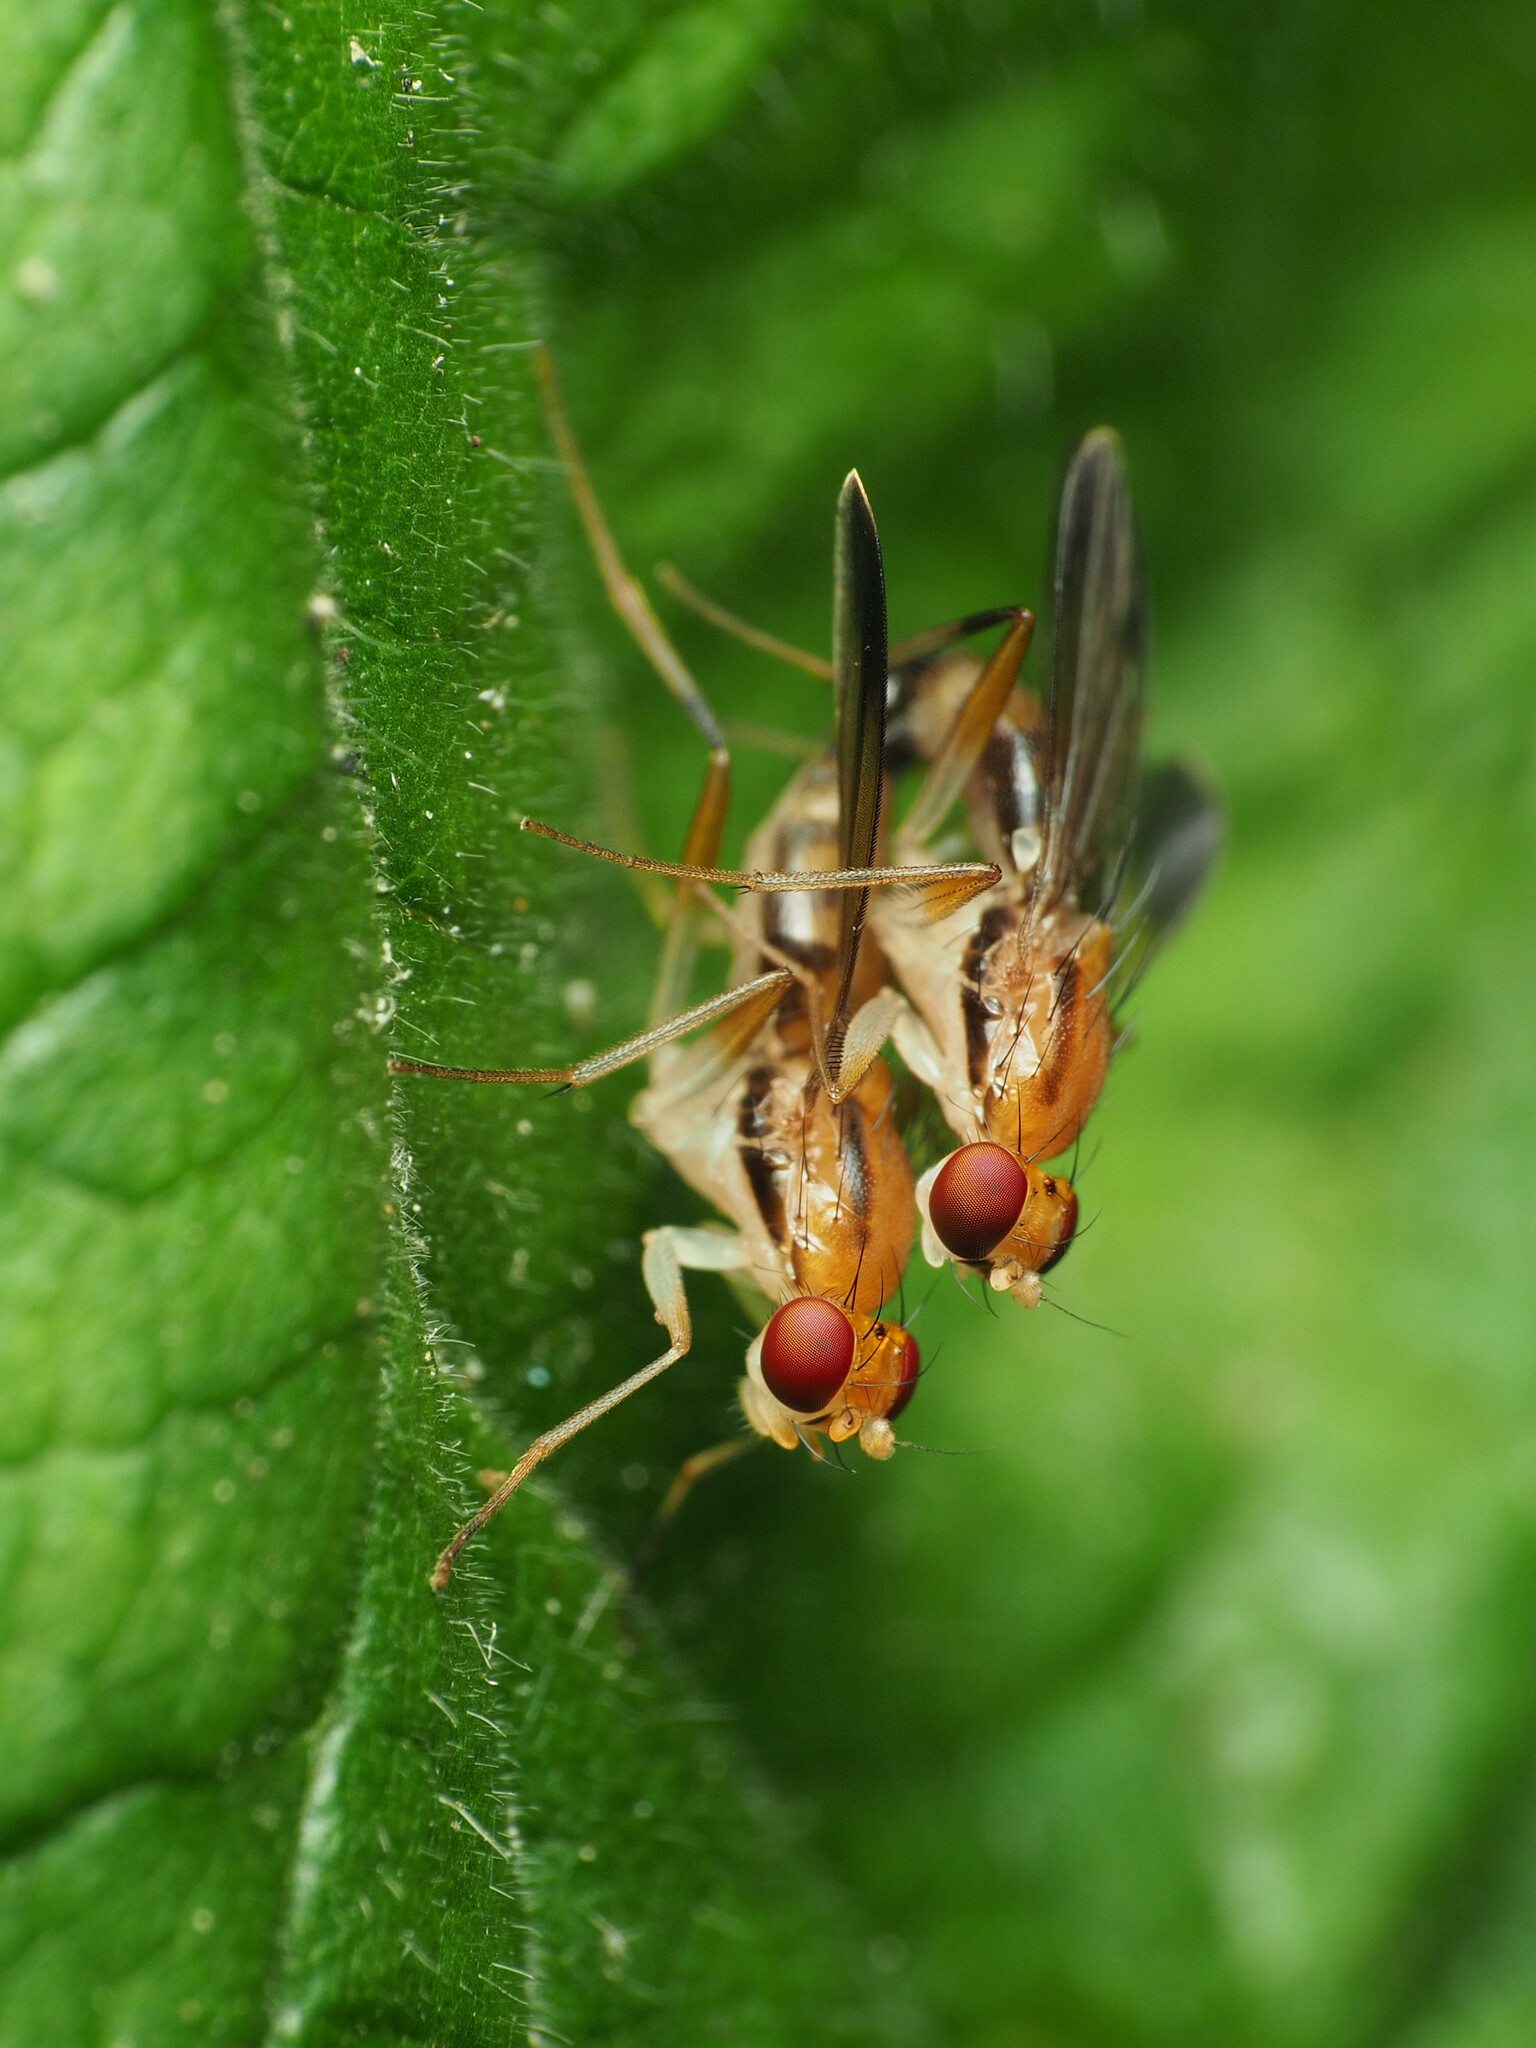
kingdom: Animalia
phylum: Arthropoda
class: Insecta
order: Diptera
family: Clusiidae
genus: Clusia
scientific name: Clusia lateralis
